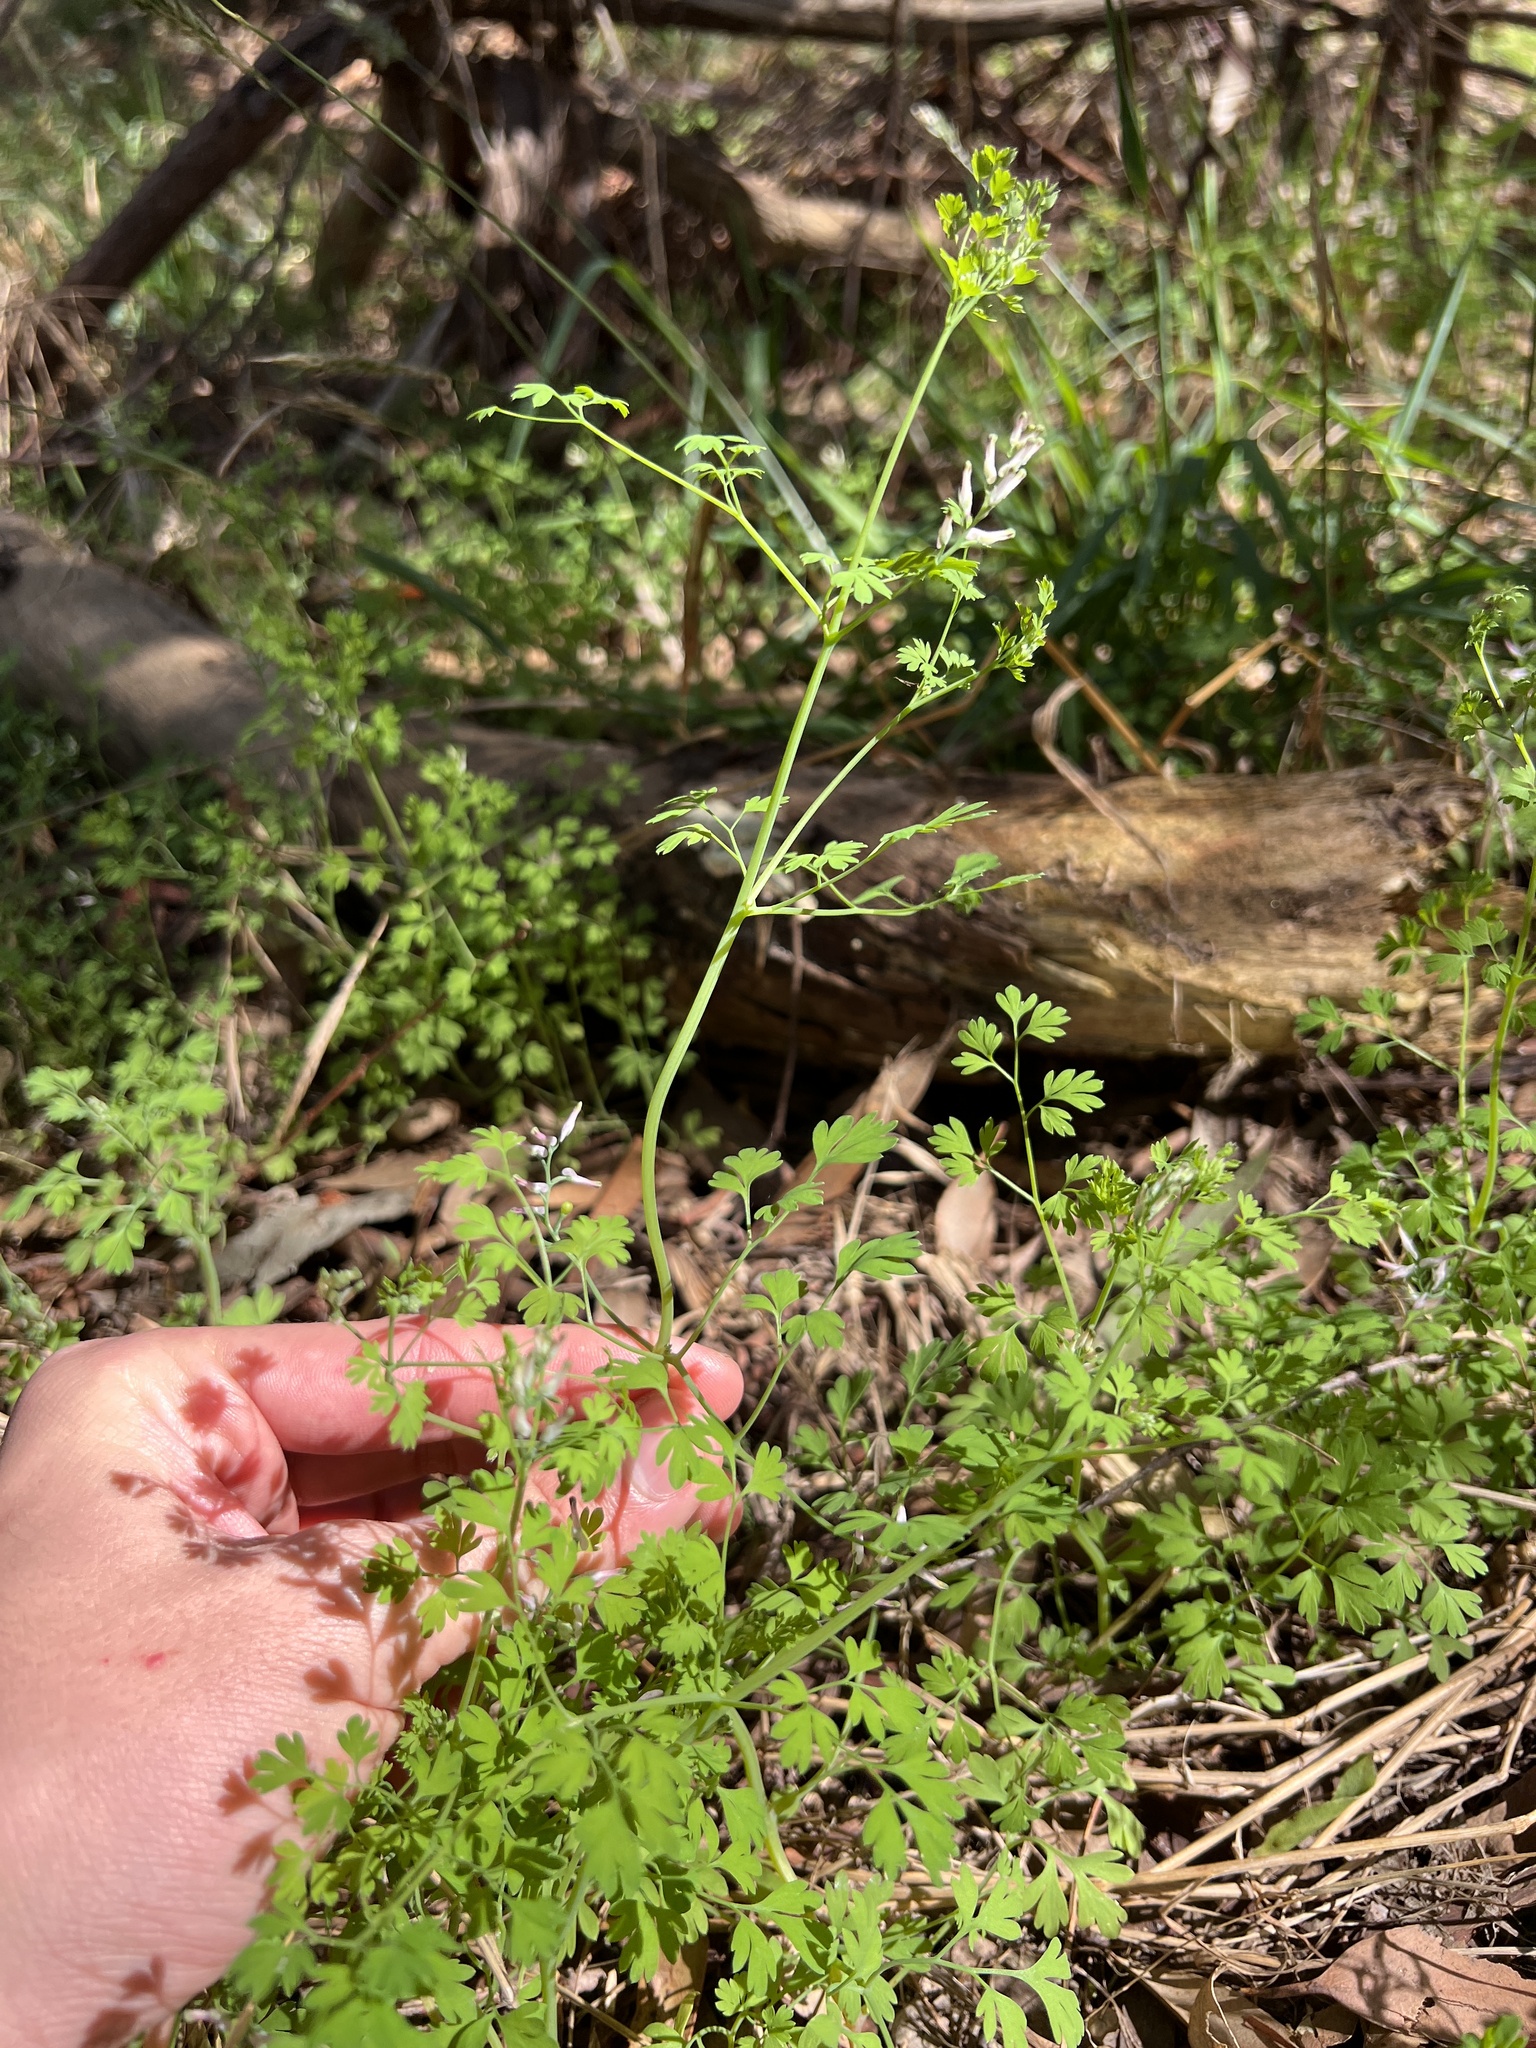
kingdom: Plantae
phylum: Tracheophyta
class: Magnoliopsida
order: Ranunculales
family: Papaveraceae
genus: Fumaria
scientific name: Fumaria bastardii
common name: Tall ramping-fumitory
